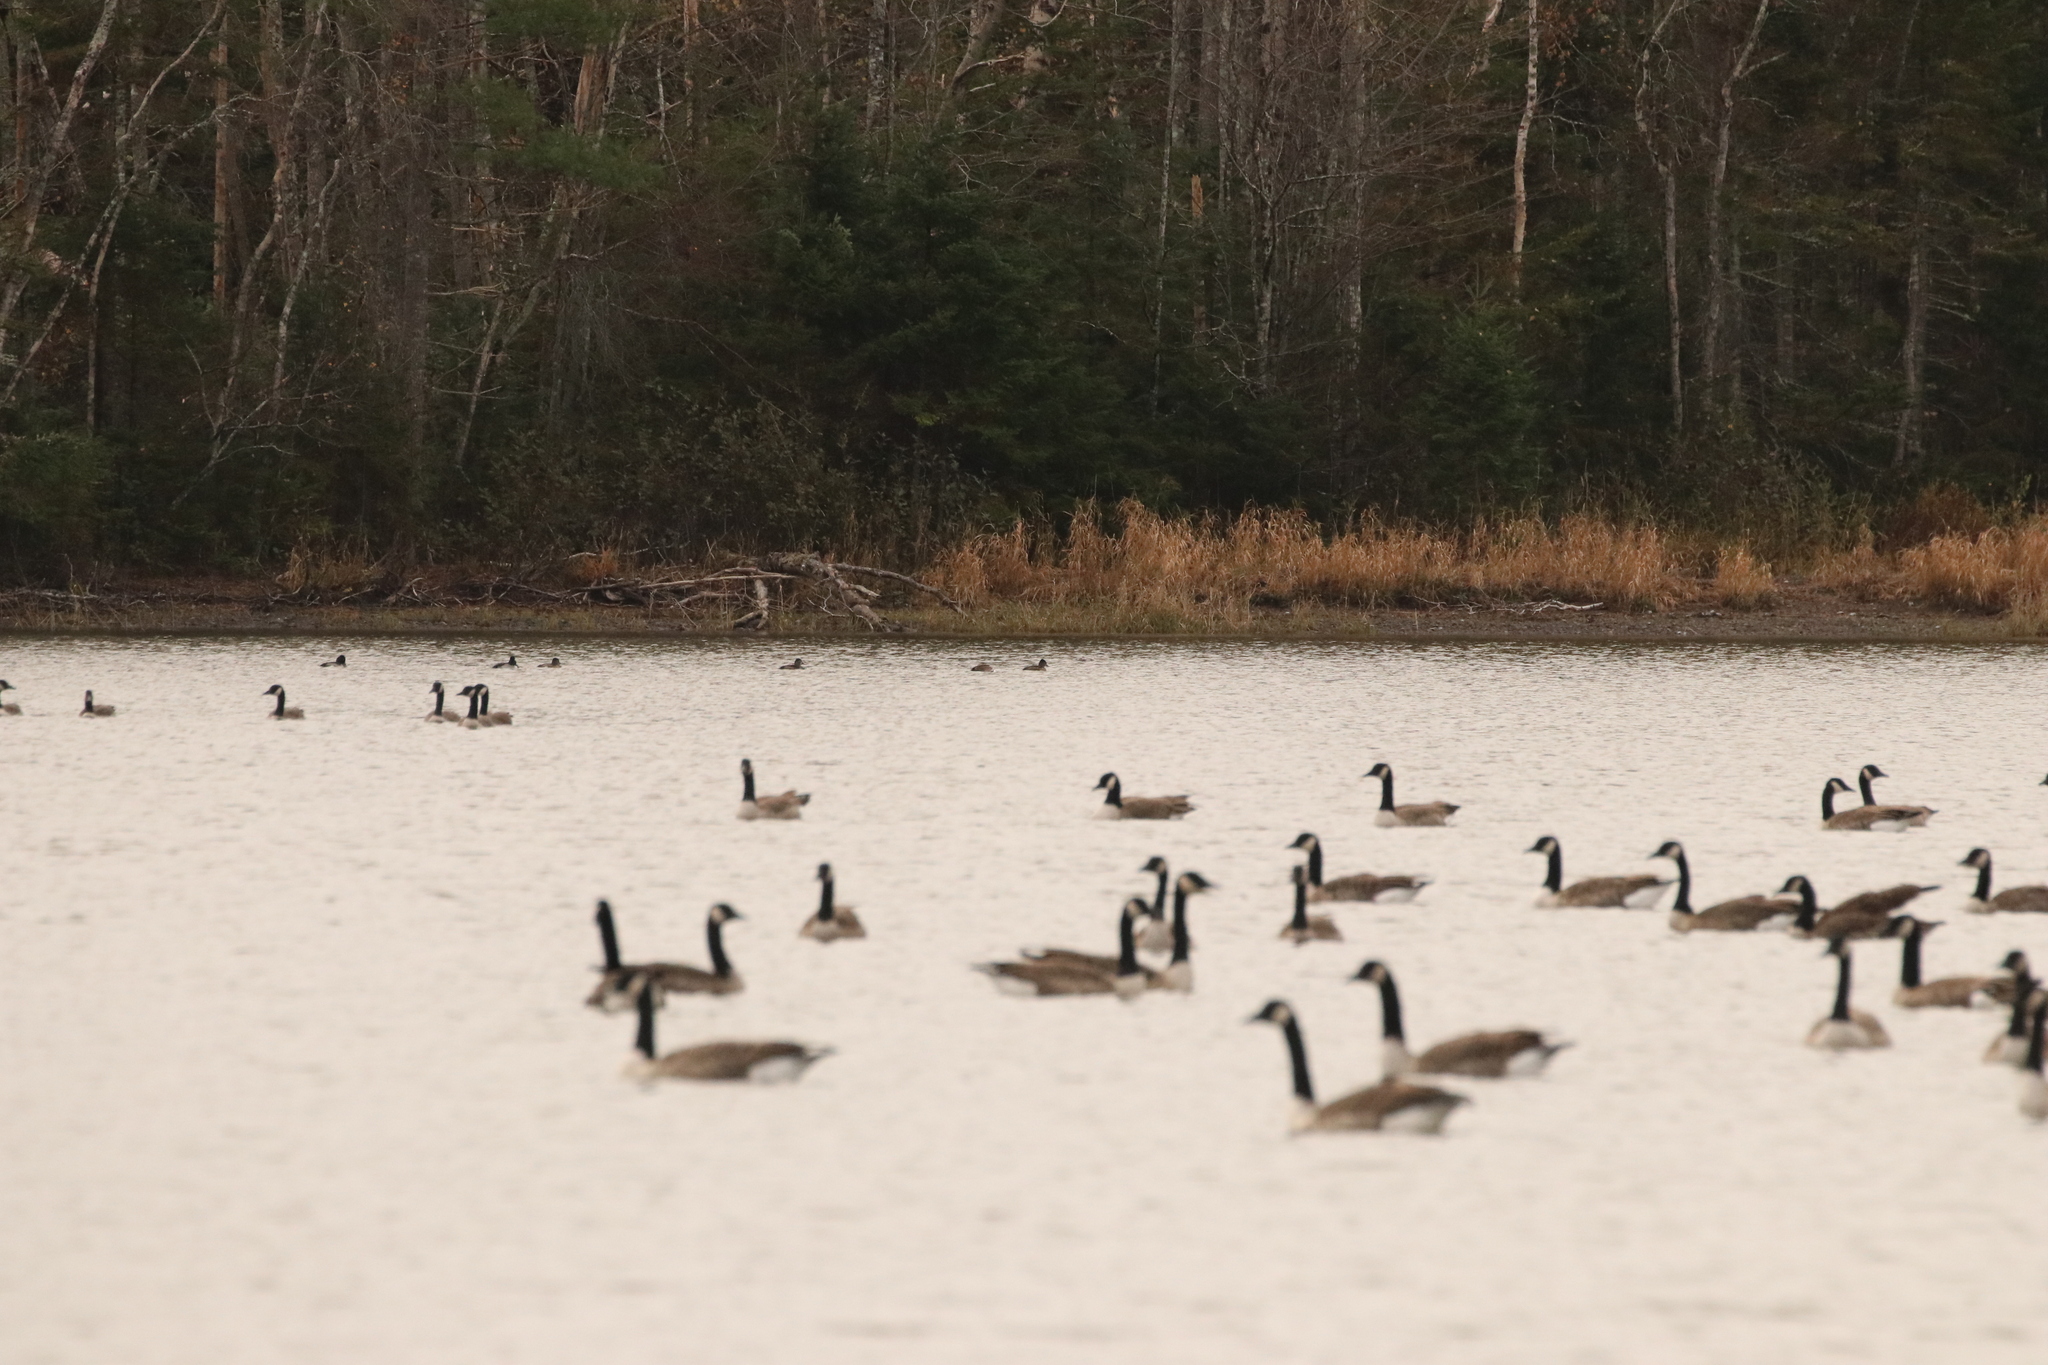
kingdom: Animalia
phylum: Chordata
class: Aves
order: Anseriformes
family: Anatidae
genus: Branta
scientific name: Branta canadensis
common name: Canada goose
